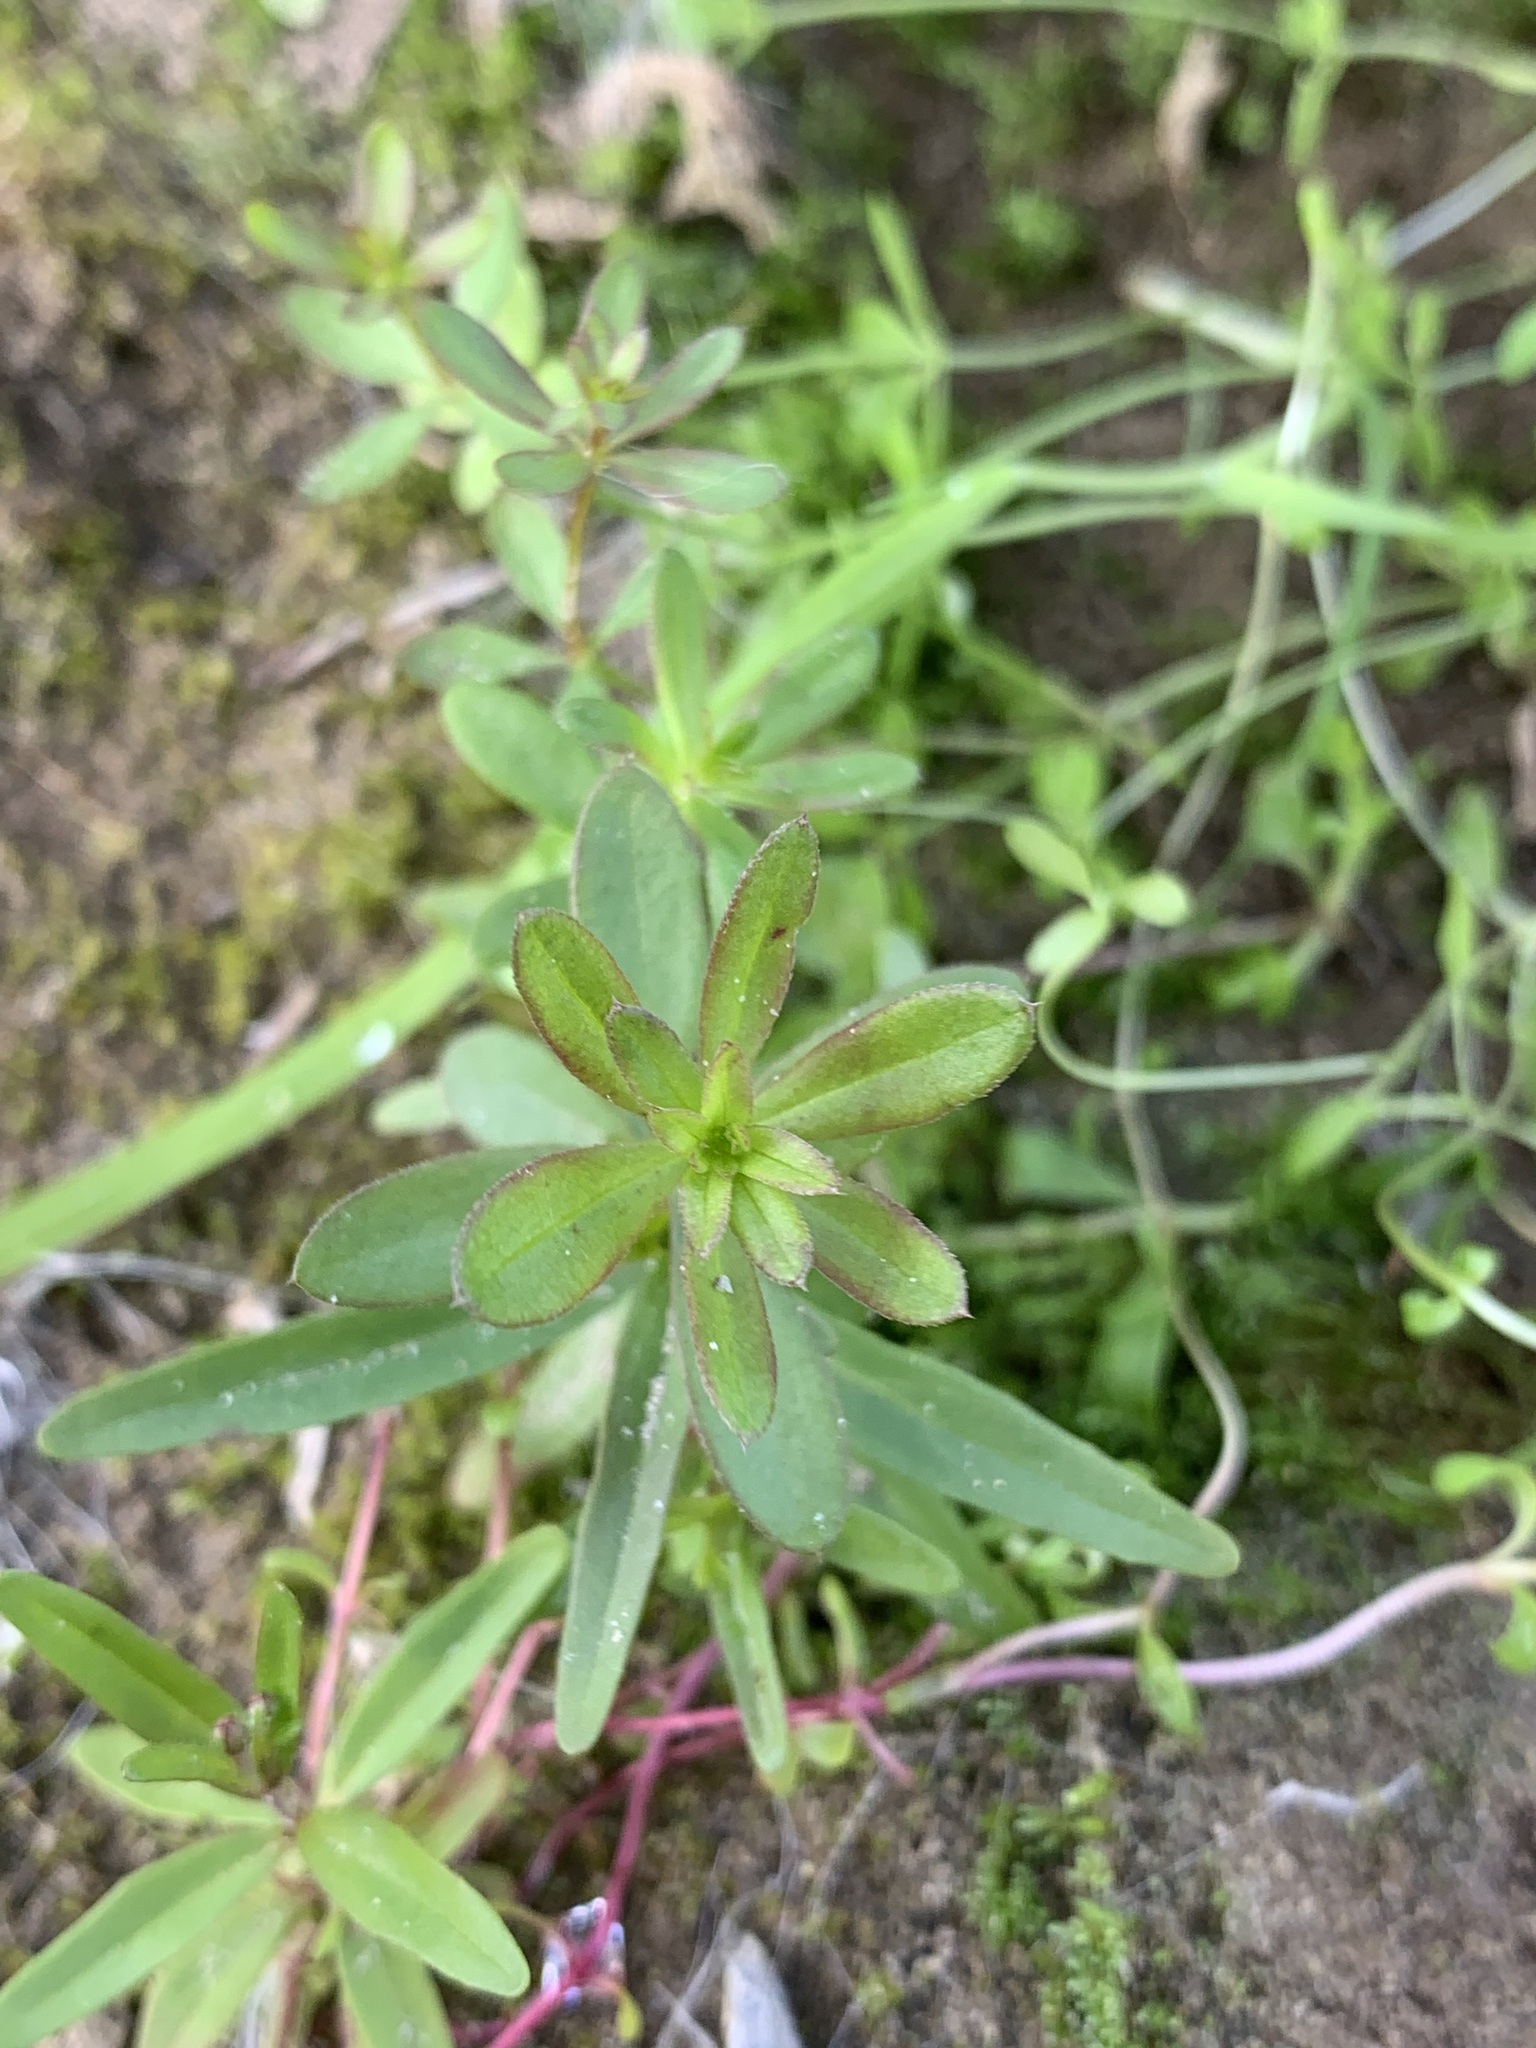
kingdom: Plantae
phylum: Tracheophyta
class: Magnoliopsida
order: Gentianales
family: Rubiaceae
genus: Galium
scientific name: Galium mollugo
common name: Hedge bedstraw
